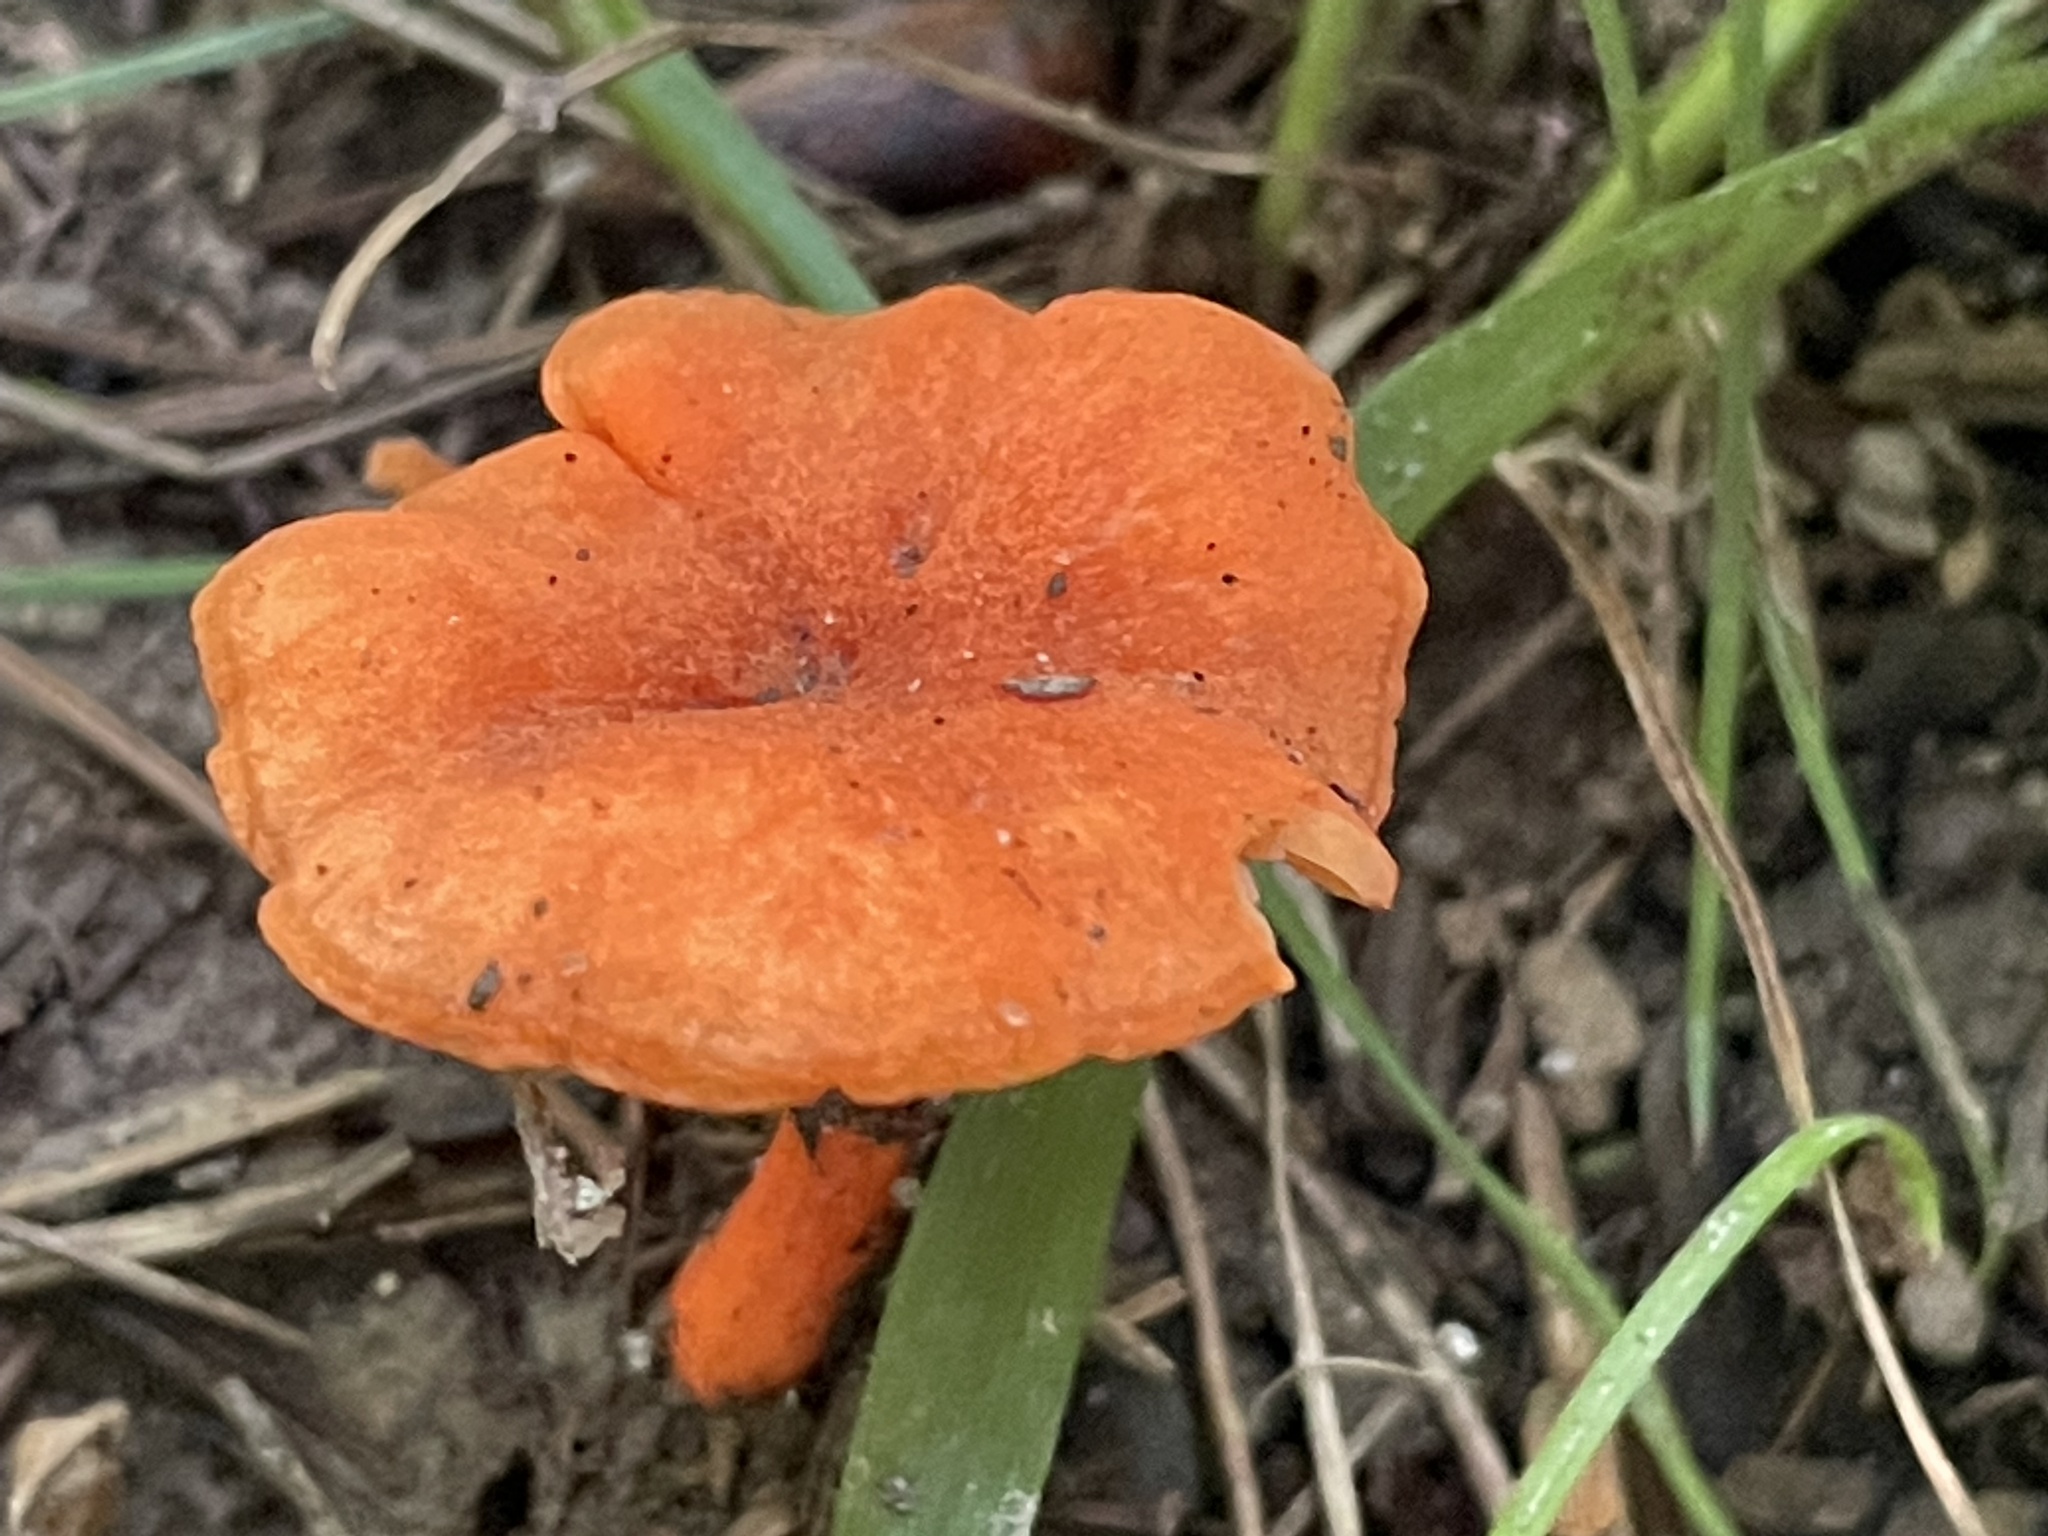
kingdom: Fungi
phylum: Basidiomycota
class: Agaricomycetes
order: Cantharellales
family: Hydnaceae
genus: Cantharellus
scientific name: Cantharellus cinnabarinus
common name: Cinnabar chanterelle
